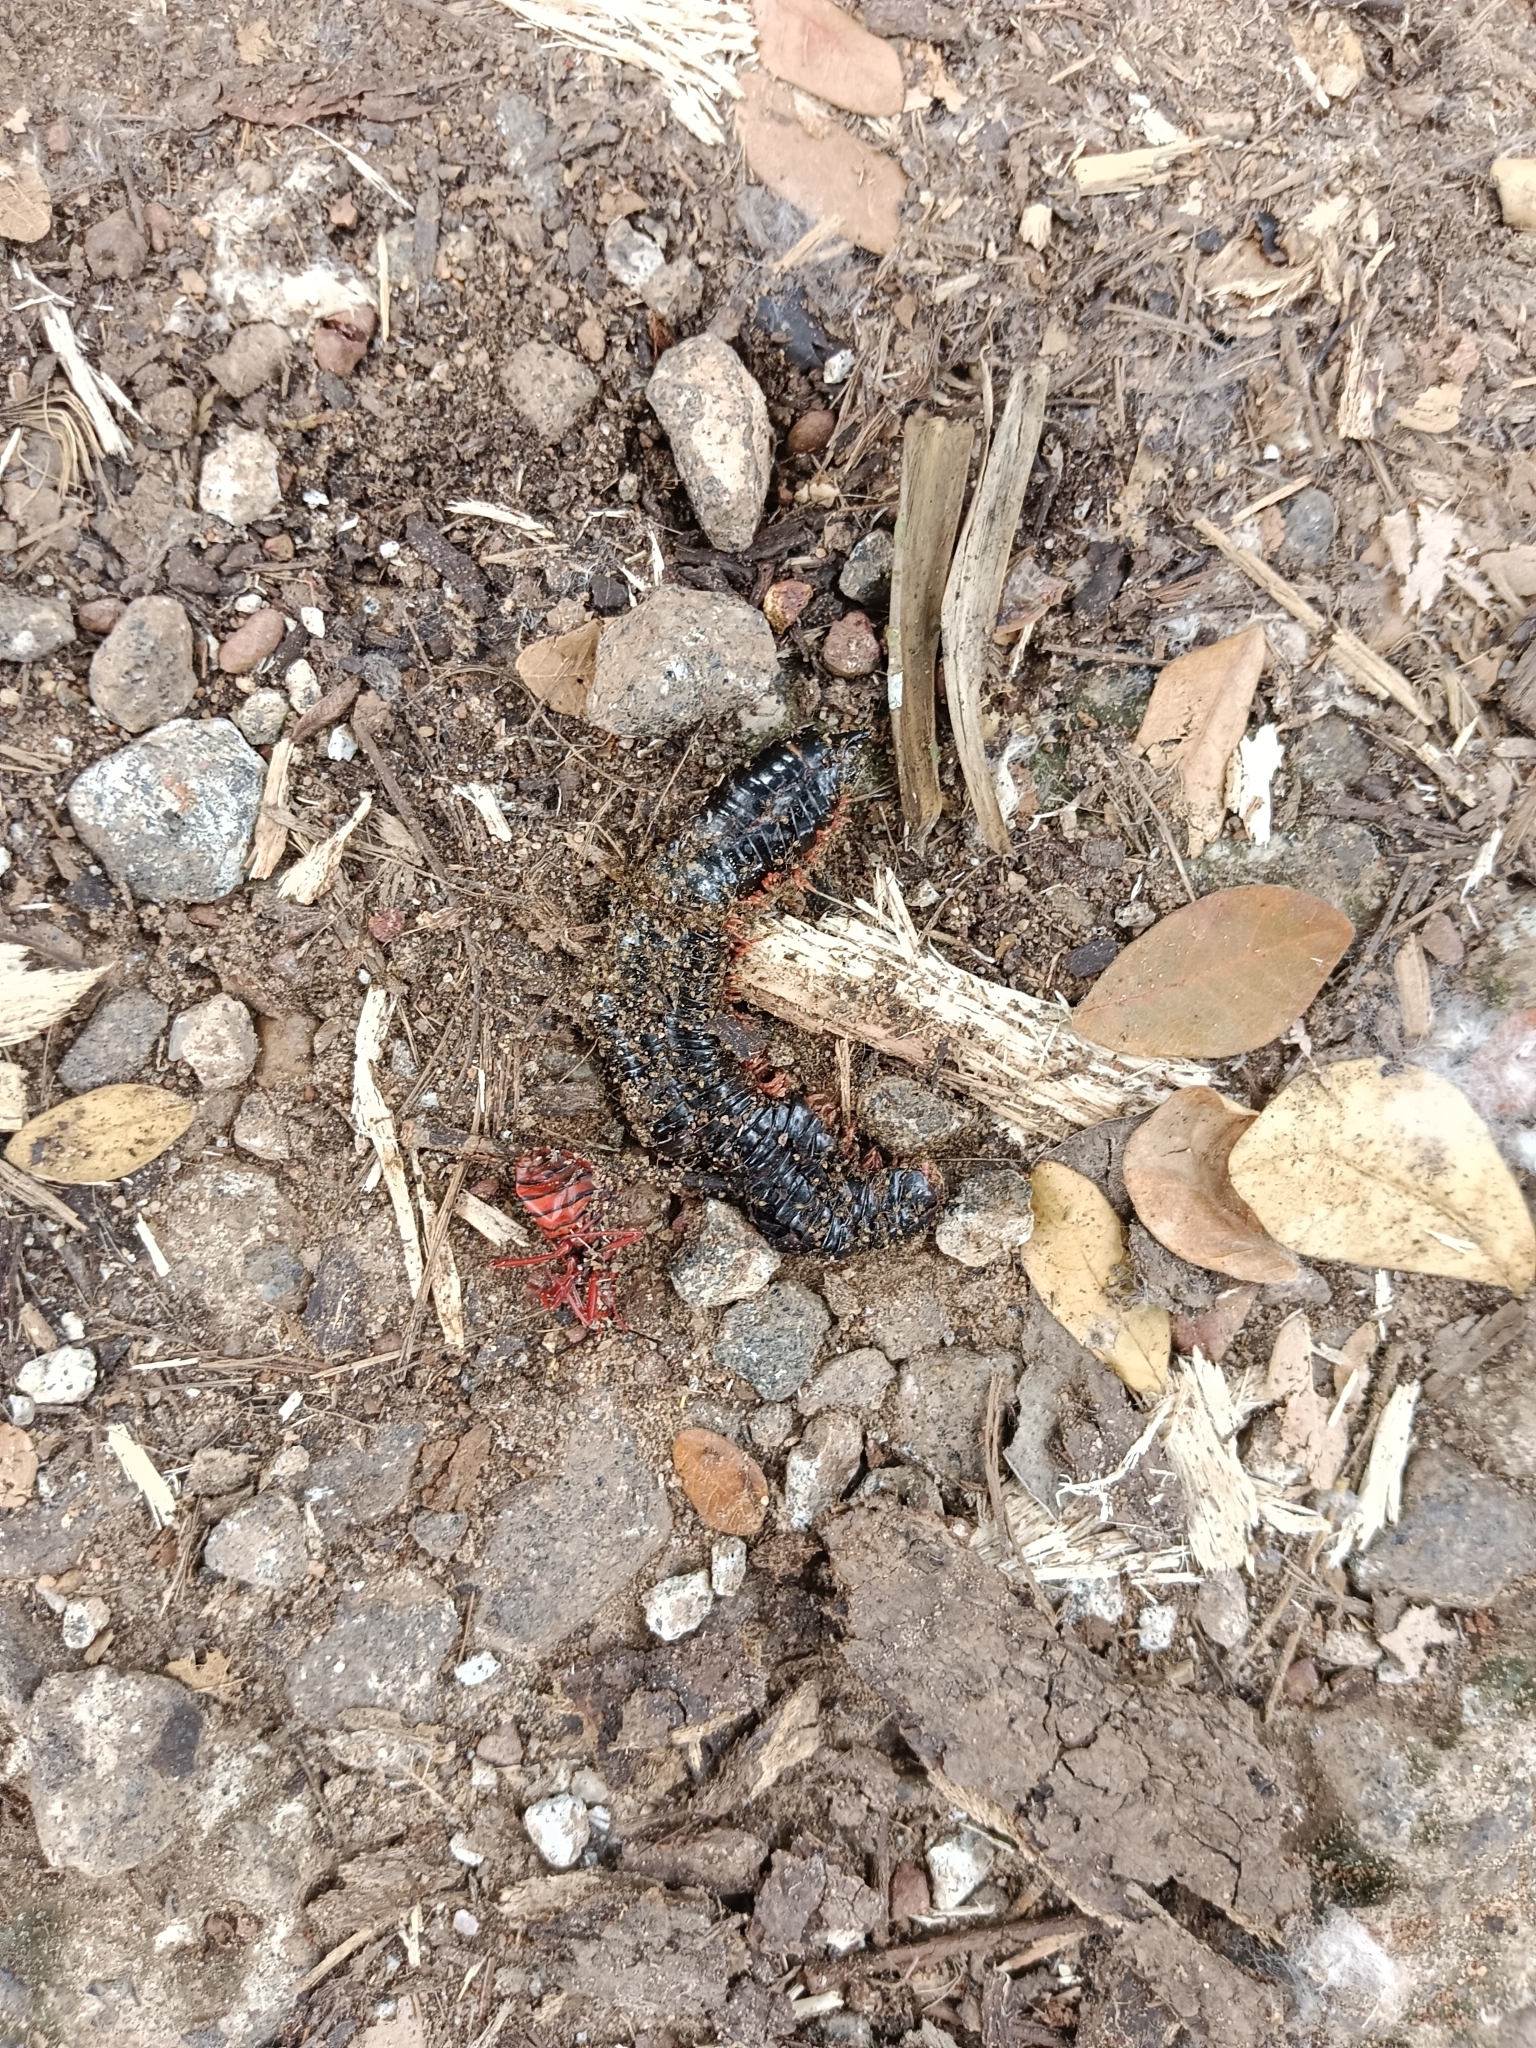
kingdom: Animalia
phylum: Arthropoda
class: Diplopoda
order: Spirostreptida
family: Harpagophoridae
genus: Phyllogonostreptus
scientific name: Phyllogonostreptus nigrolabiatus
